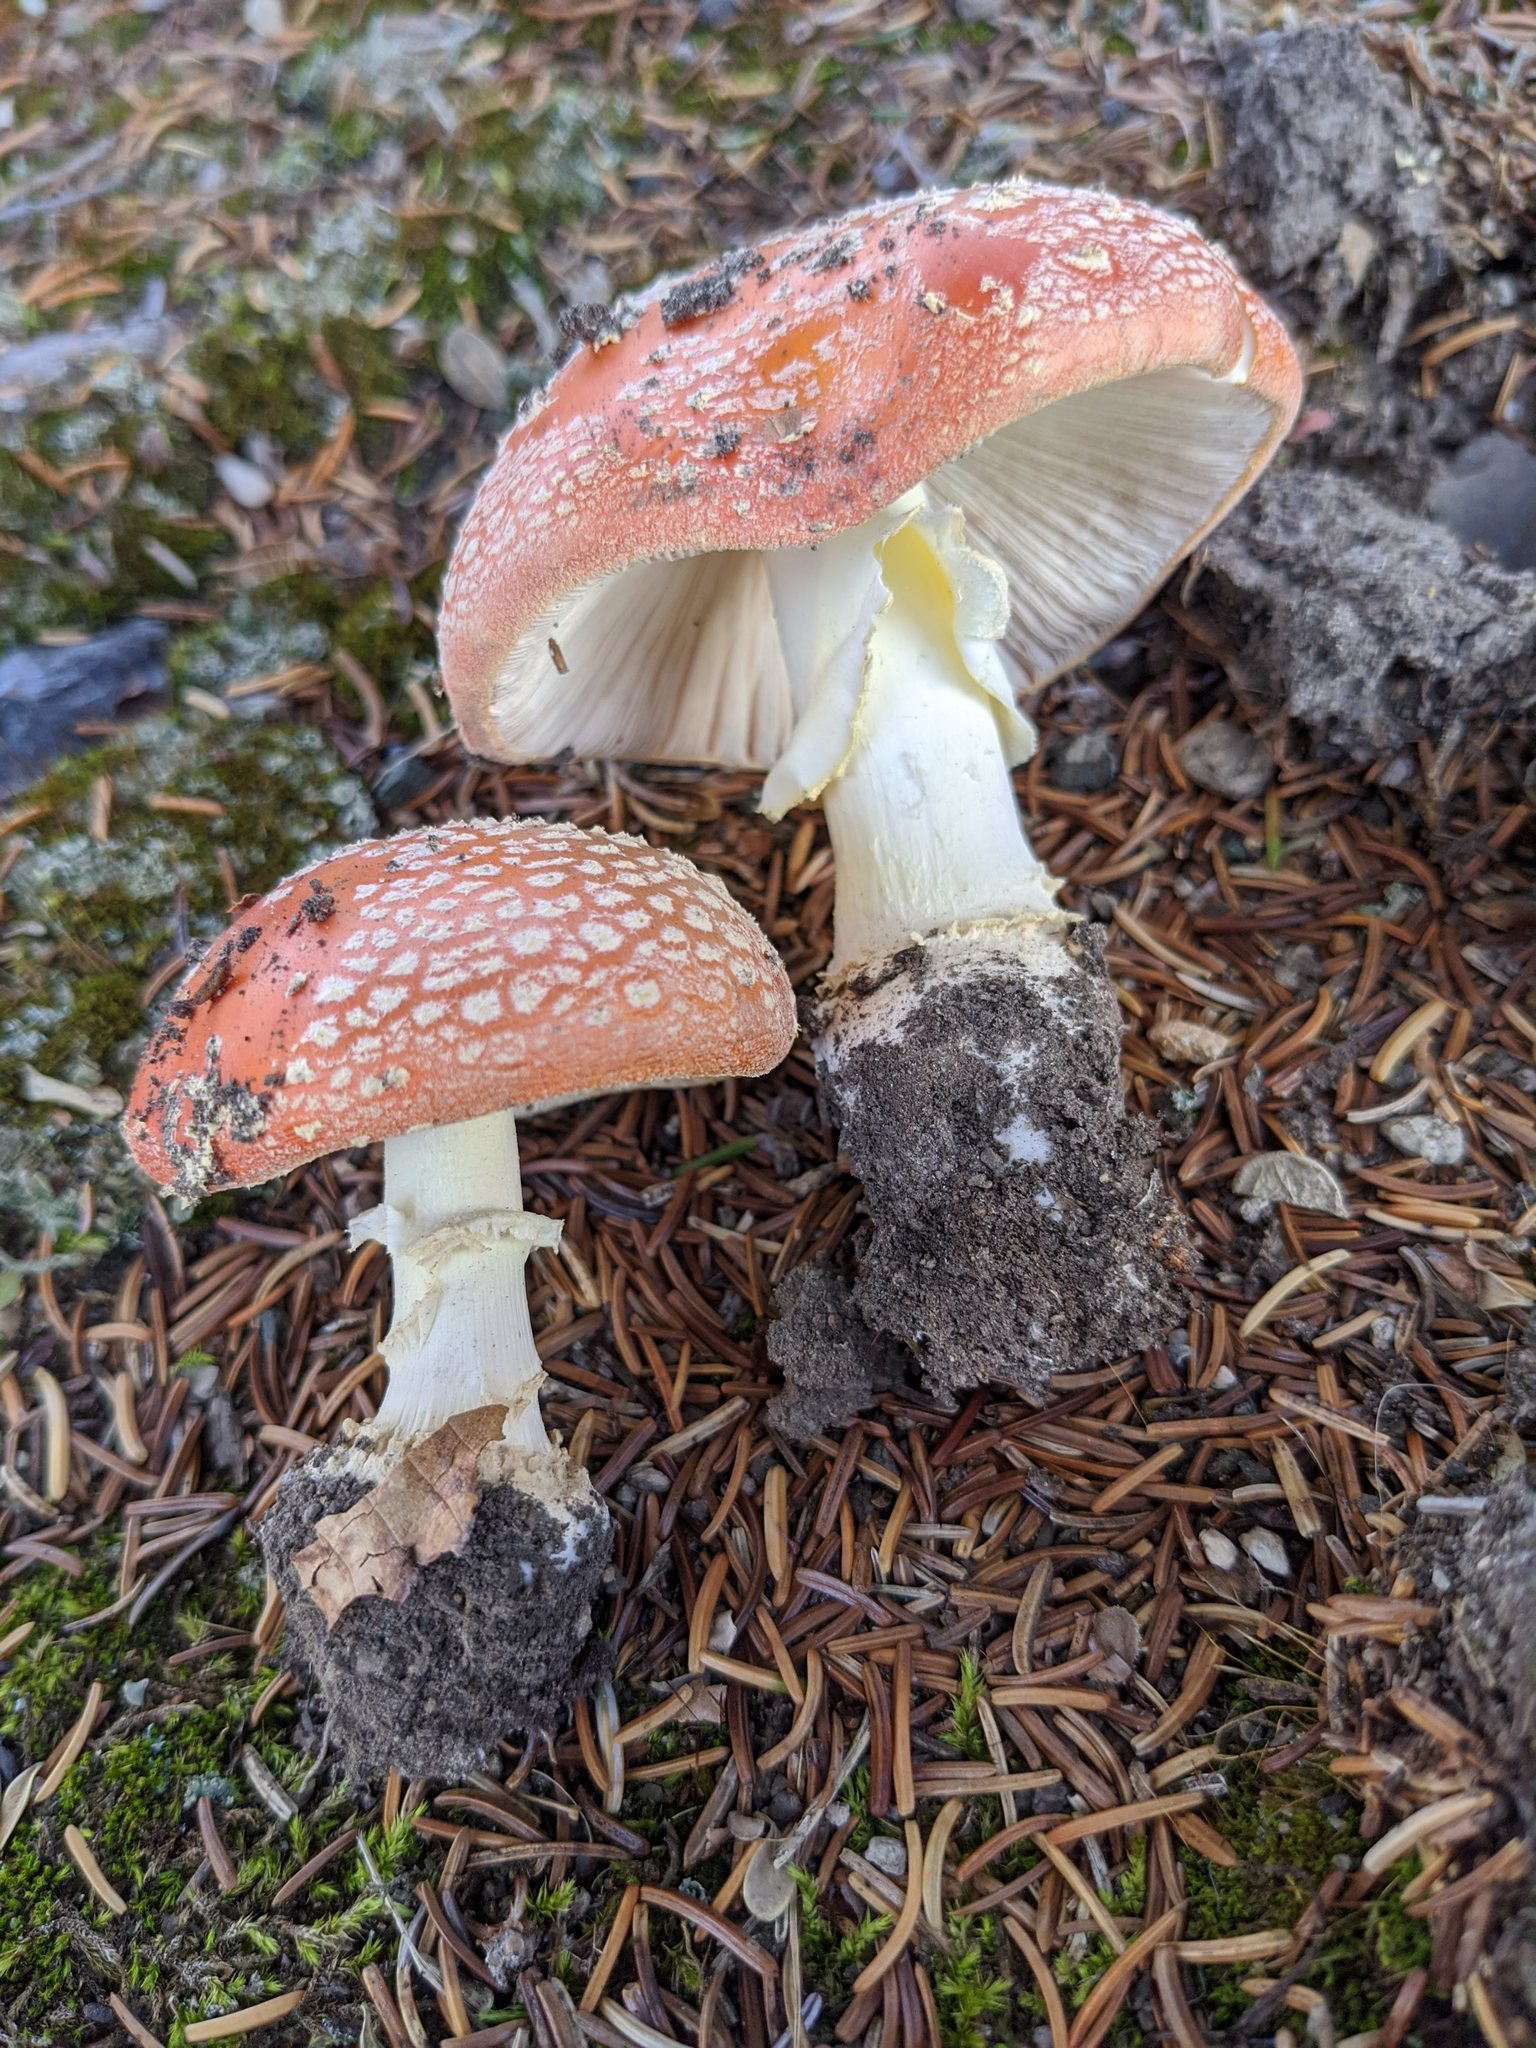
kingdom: Fungi
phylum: Basidiomycota
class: Agaricomycetes
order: Agaricales
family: Amanitaceae
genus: Amanita
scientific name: Amanita muscaria
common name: Fly agaric
